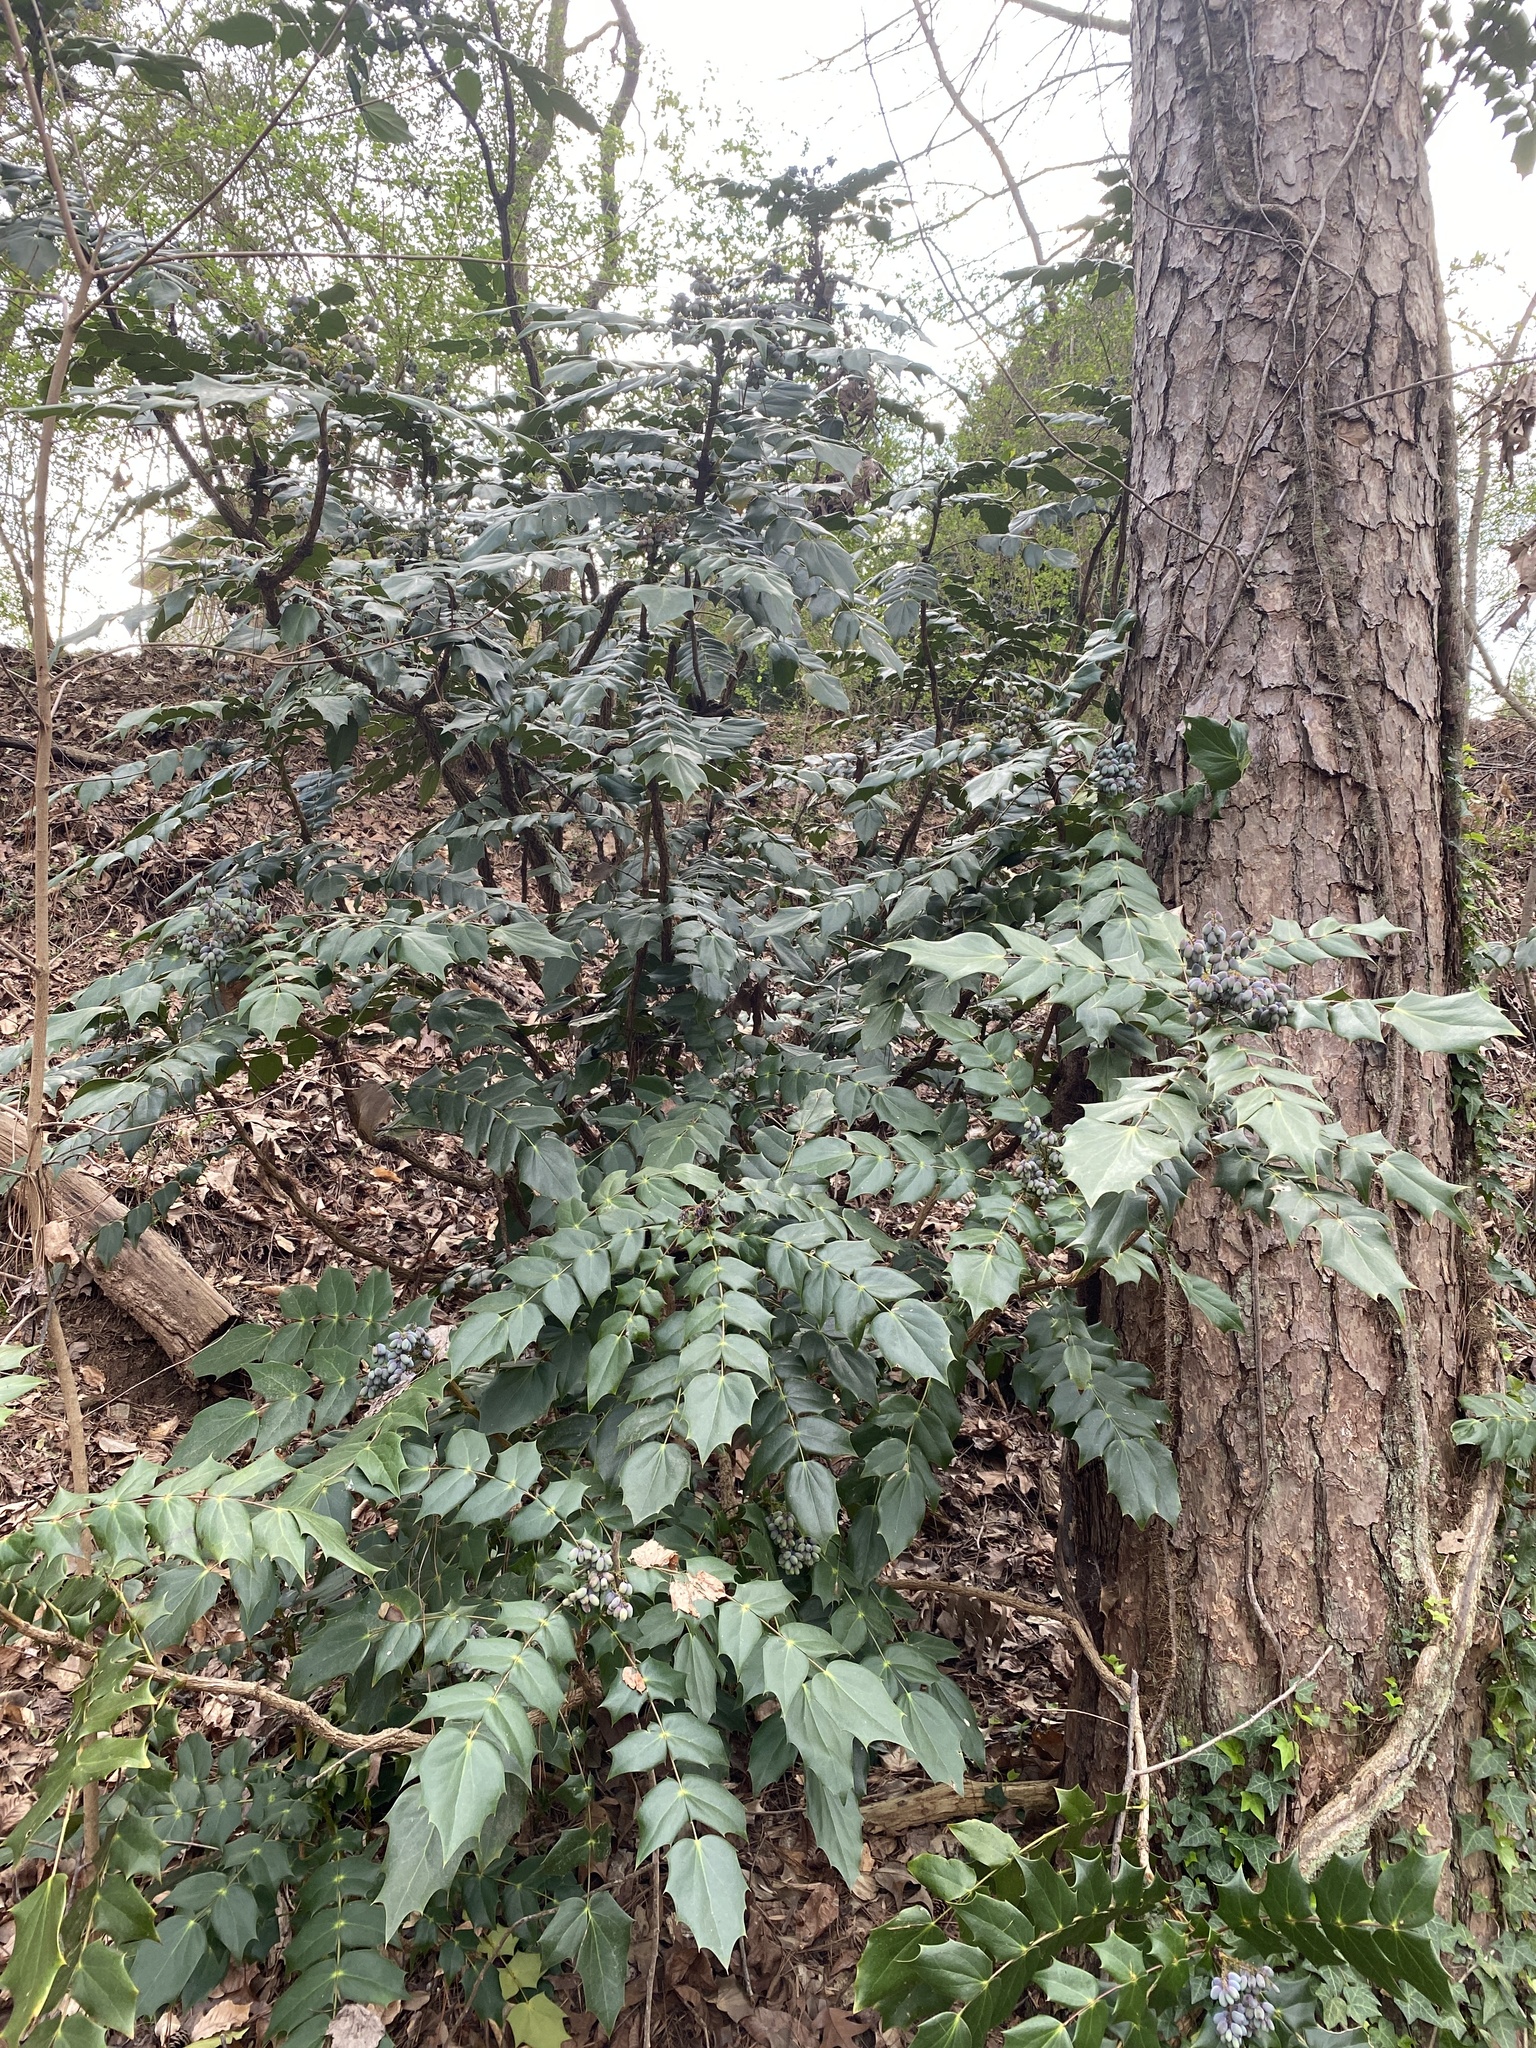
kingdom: Plantae
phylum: Tracheophyta
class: Magnoliopsida
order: Ranunculales
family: Berberidaceae
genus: Mahonia
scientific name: Mahonia bealei
